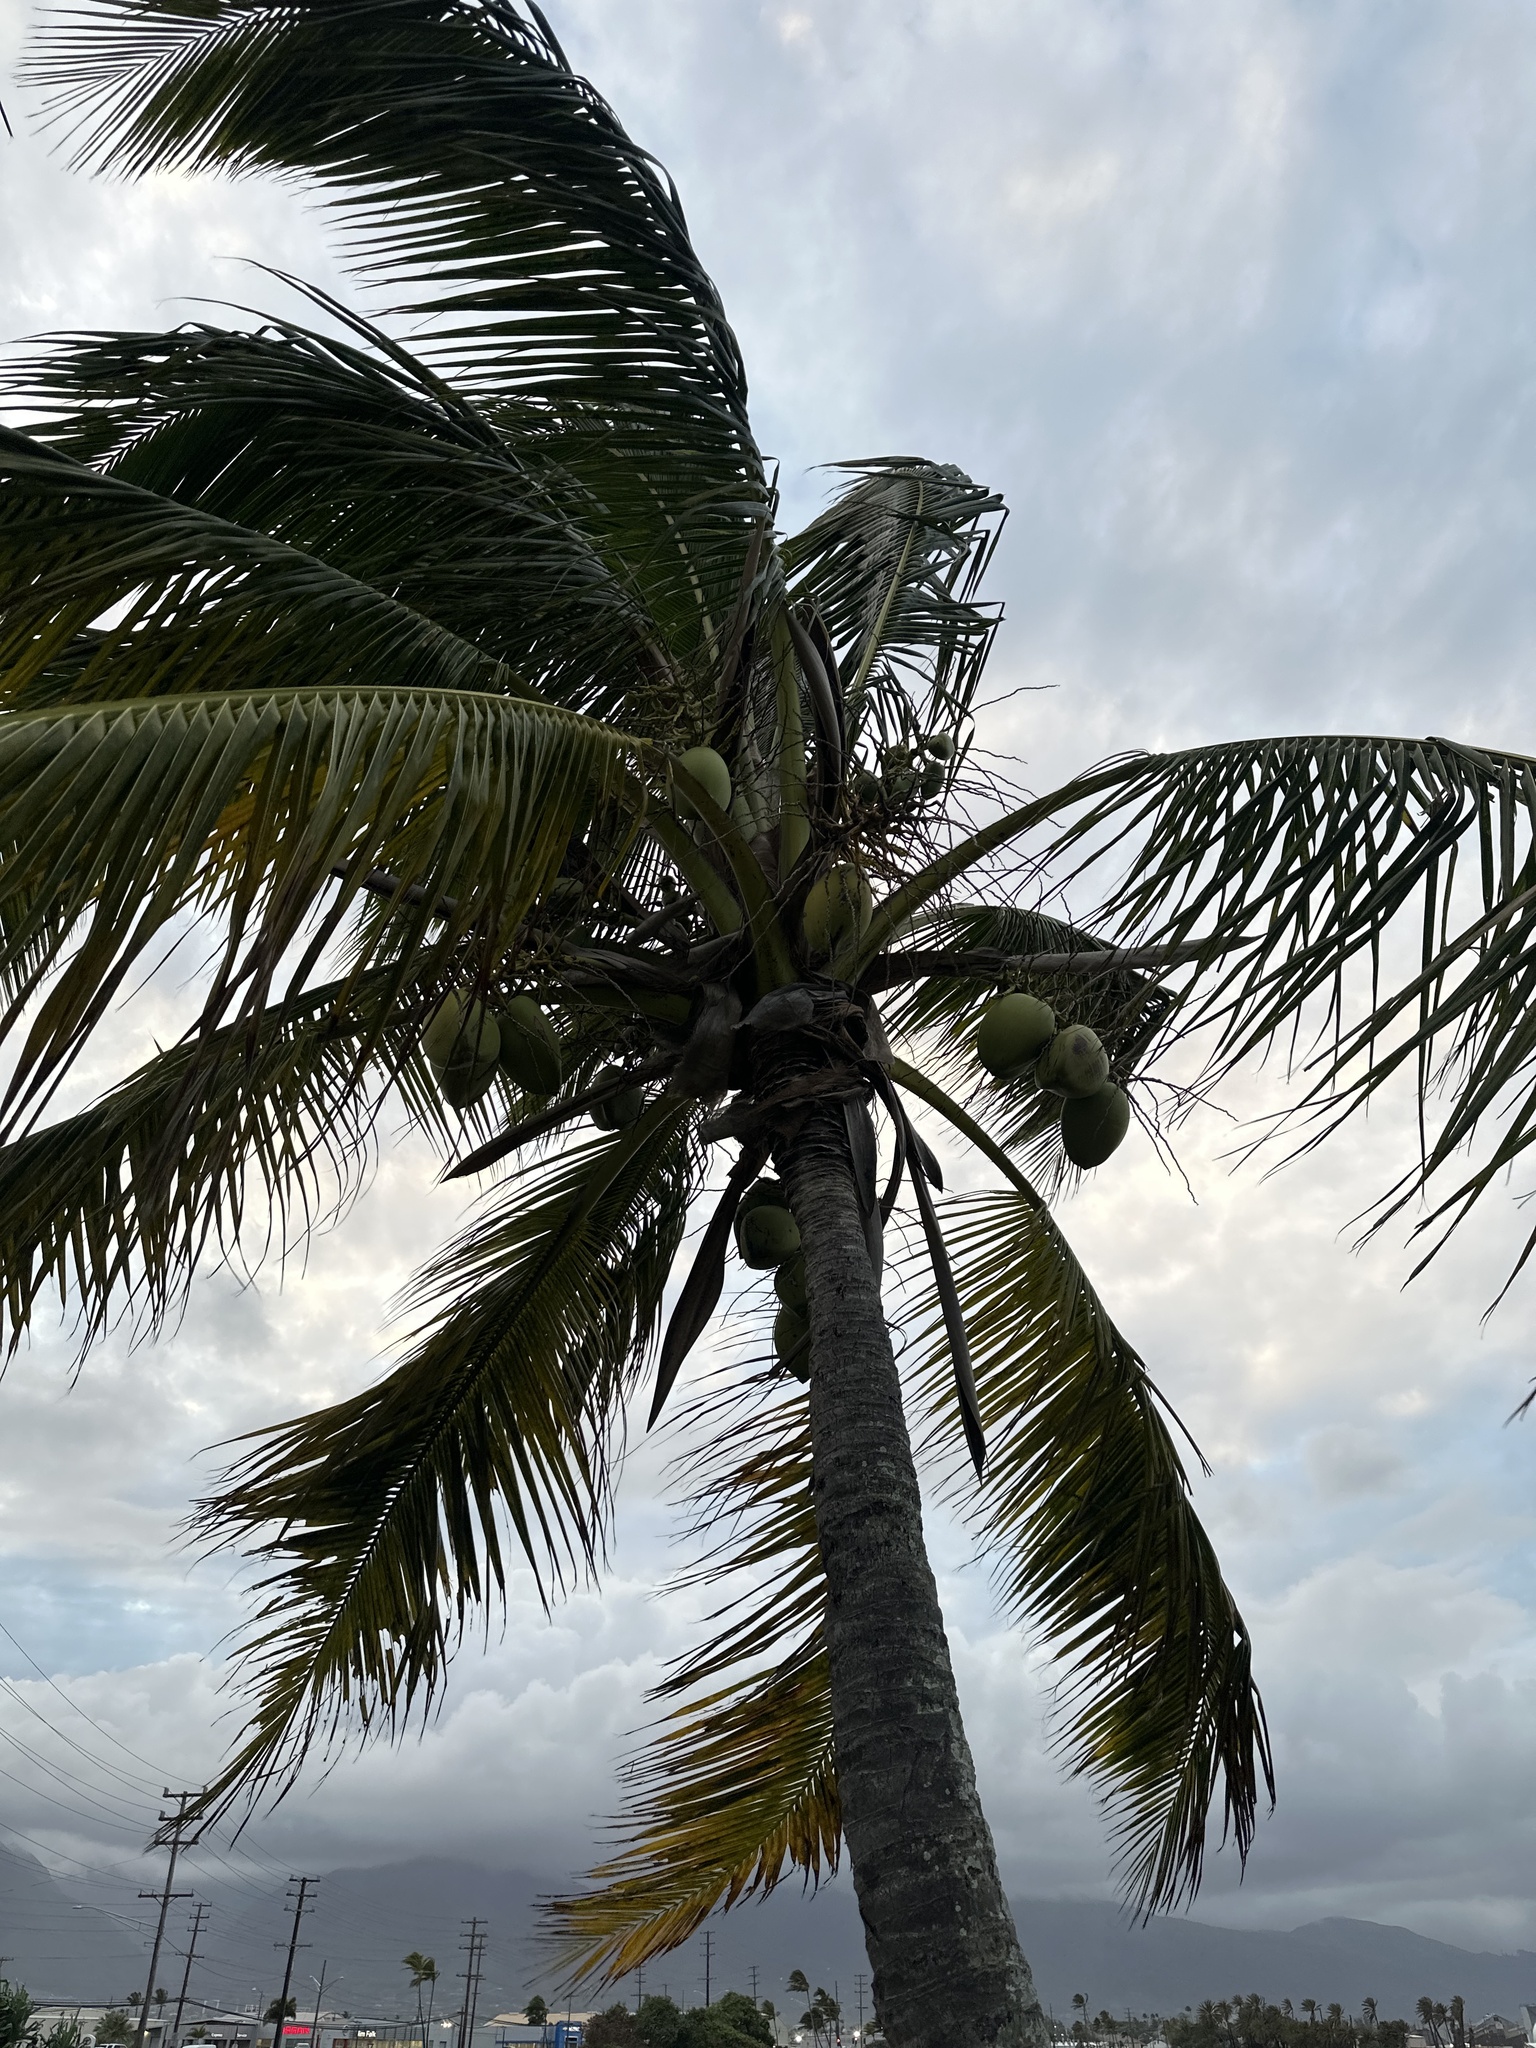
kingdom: Plantae
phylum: Tracheophyta
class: Liliopsida
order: Arecales
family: Arecaceae
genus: Cocos
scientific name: Cocos nucifera
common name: Coconut palm
